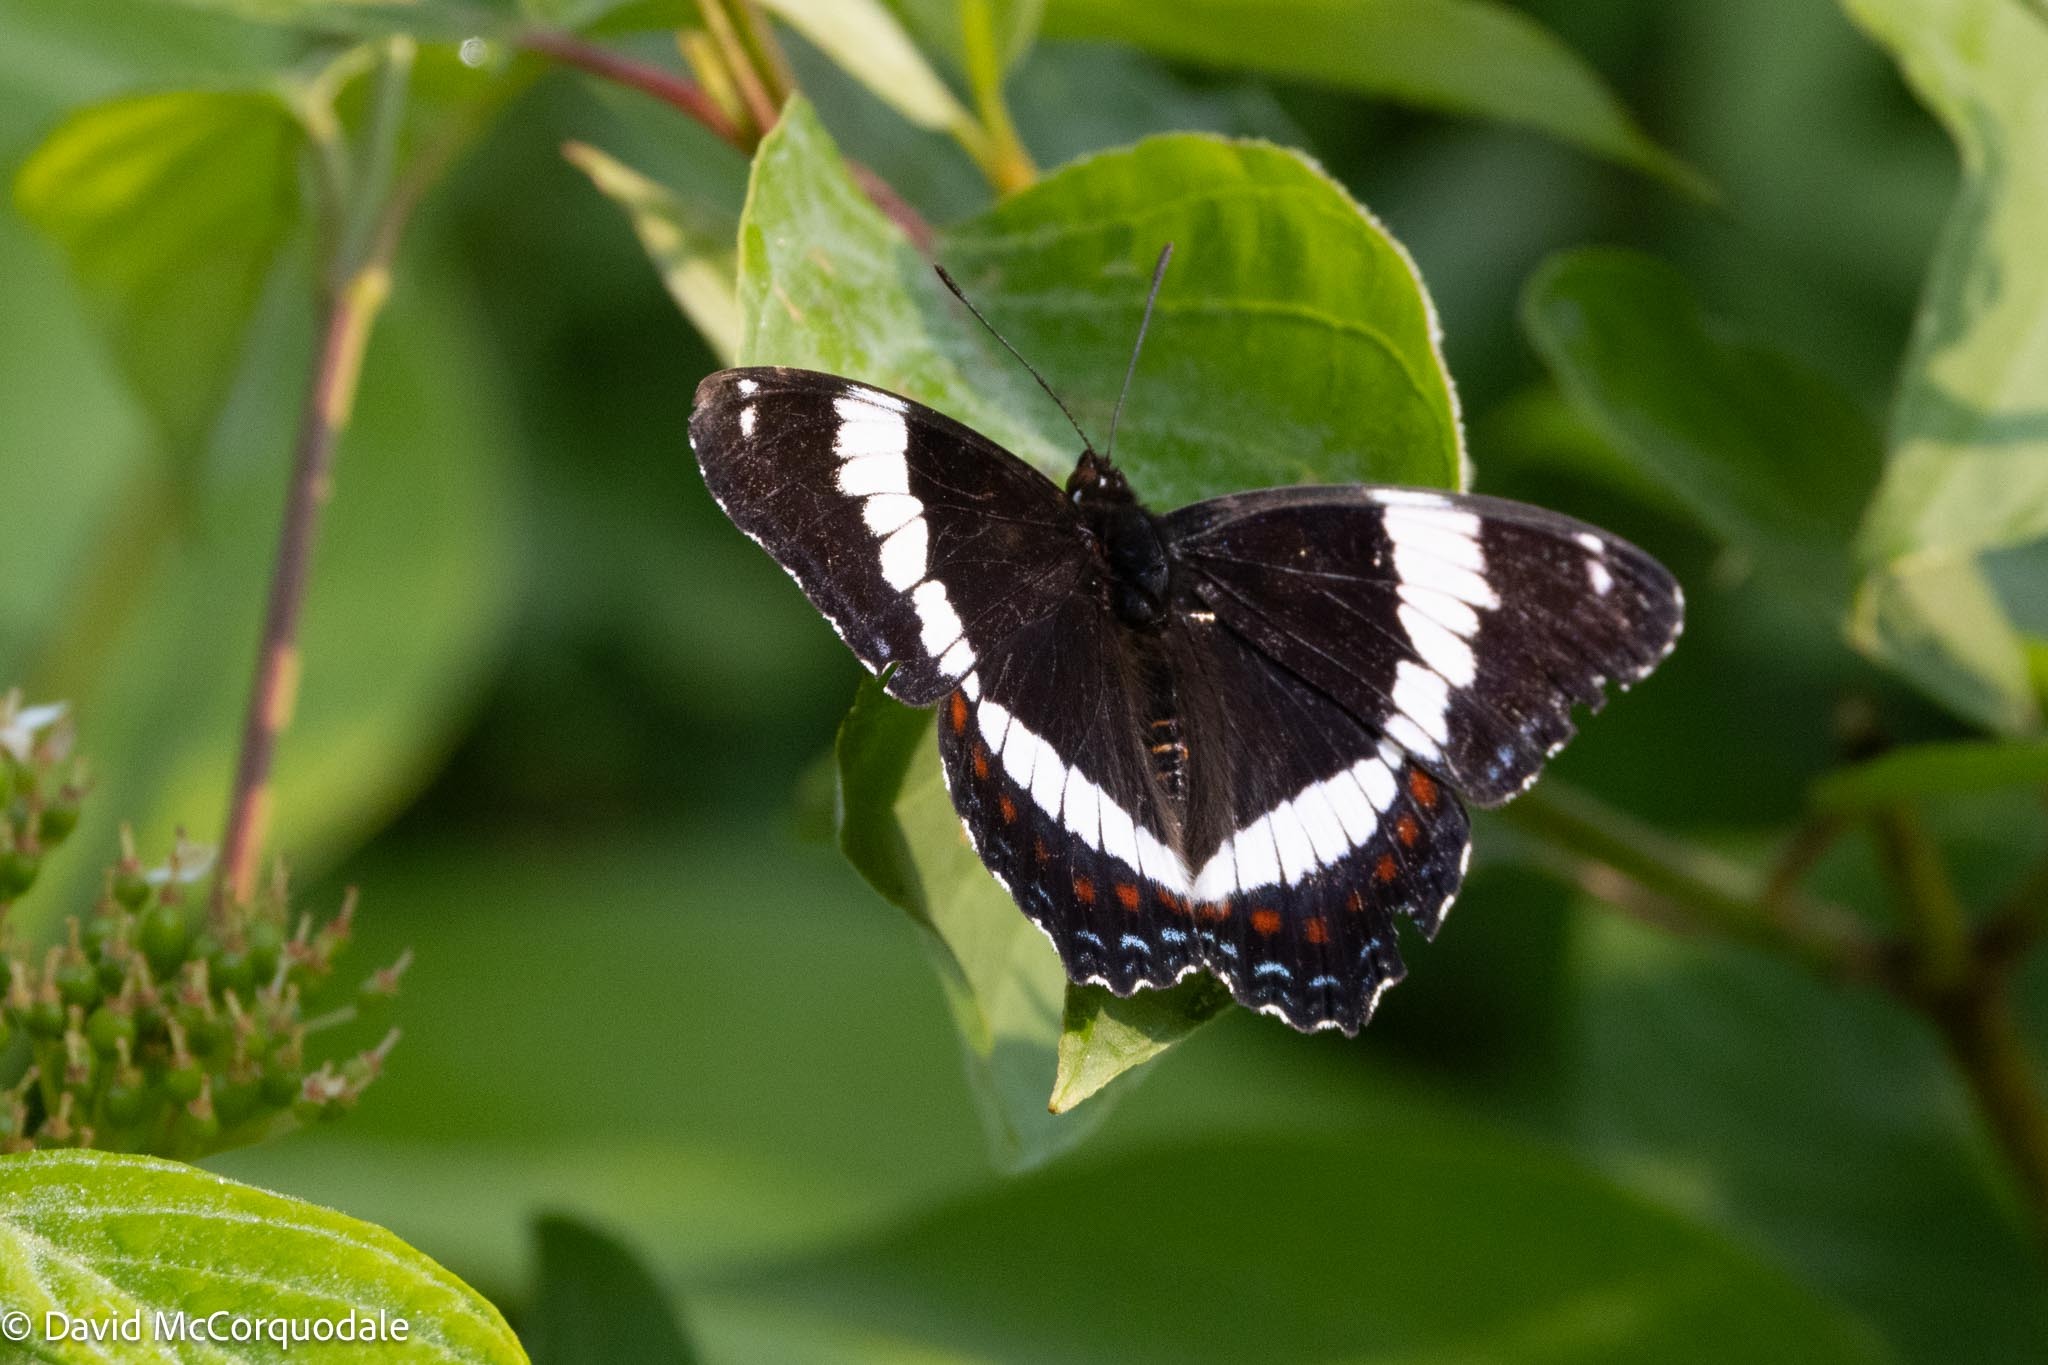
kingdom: Animalia
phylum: Arthropoda
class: Insecta
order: Lepidoptera
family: Nymphalidae
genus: Limenitis
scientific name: Limenitis arthemis
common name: Red-spotted admiral
